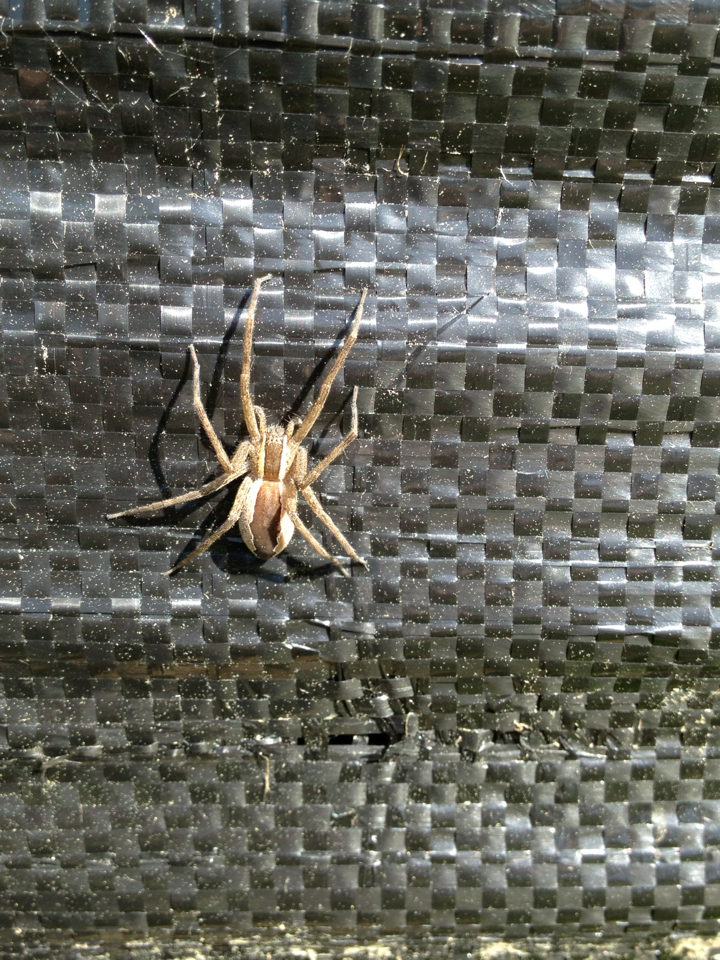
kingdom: Animalia
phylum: Arthropoda
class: Arachnida
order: Araneae
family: Pisauridae
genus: Pisaurina
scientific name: Pisaurina mira
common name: American nursery web spider
